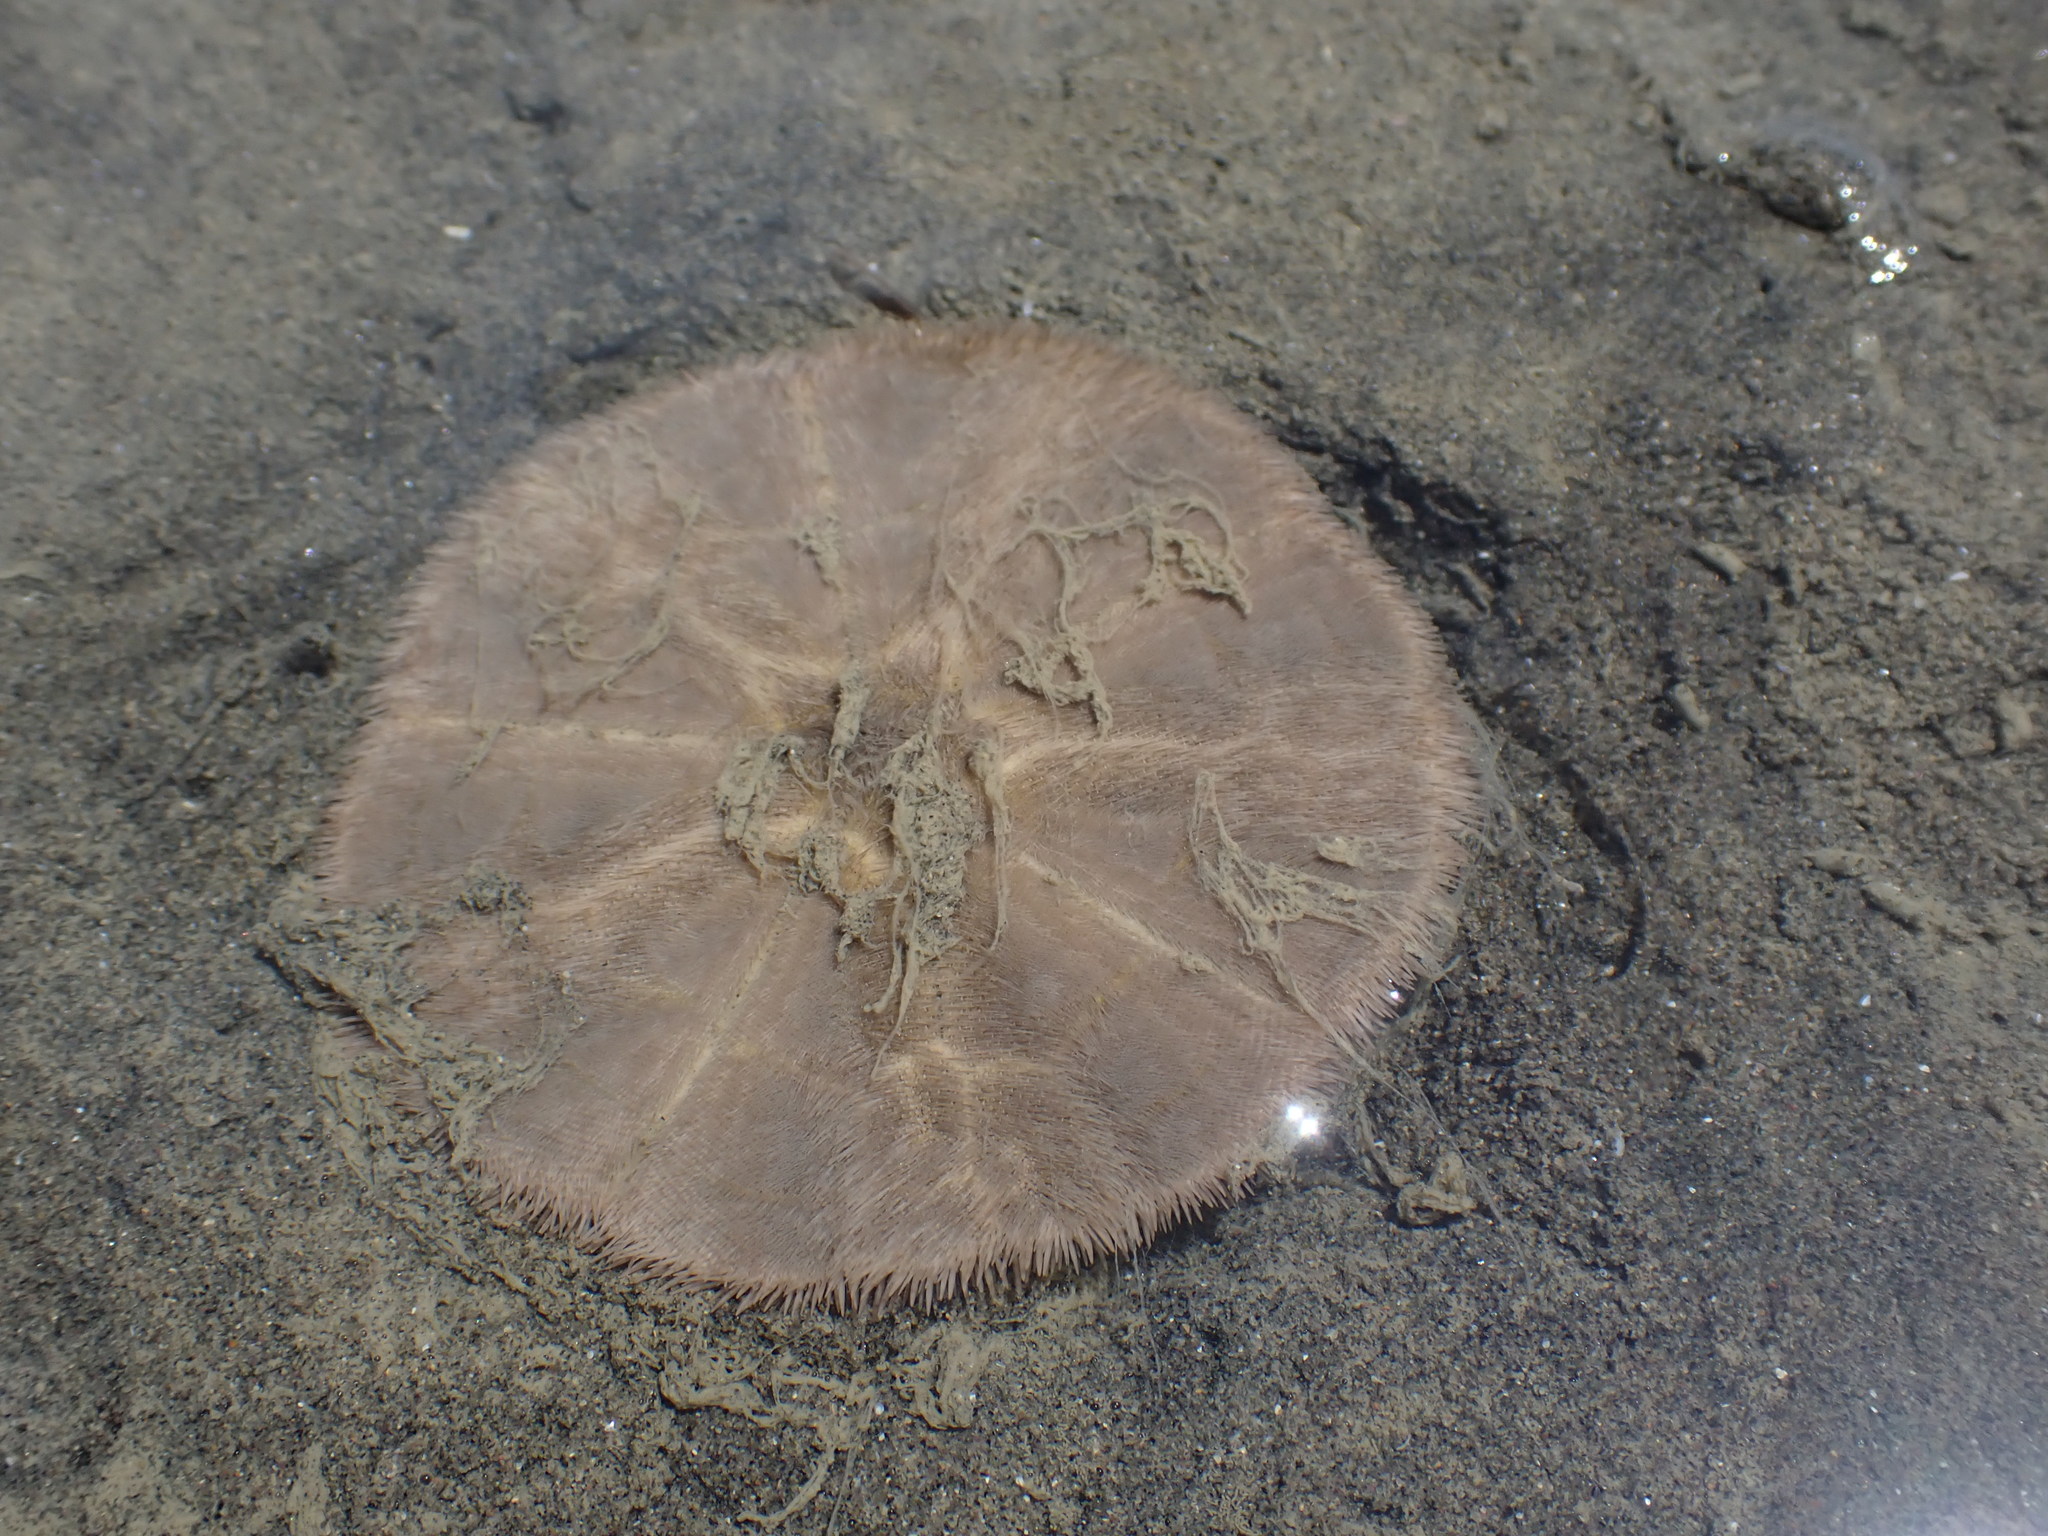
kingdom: Animalia
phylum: Echinodermata
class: Echinoidea
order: Clypeasteroida
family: Clypeasteridae
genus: Fellaster
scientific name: Fellaster zelandiae
